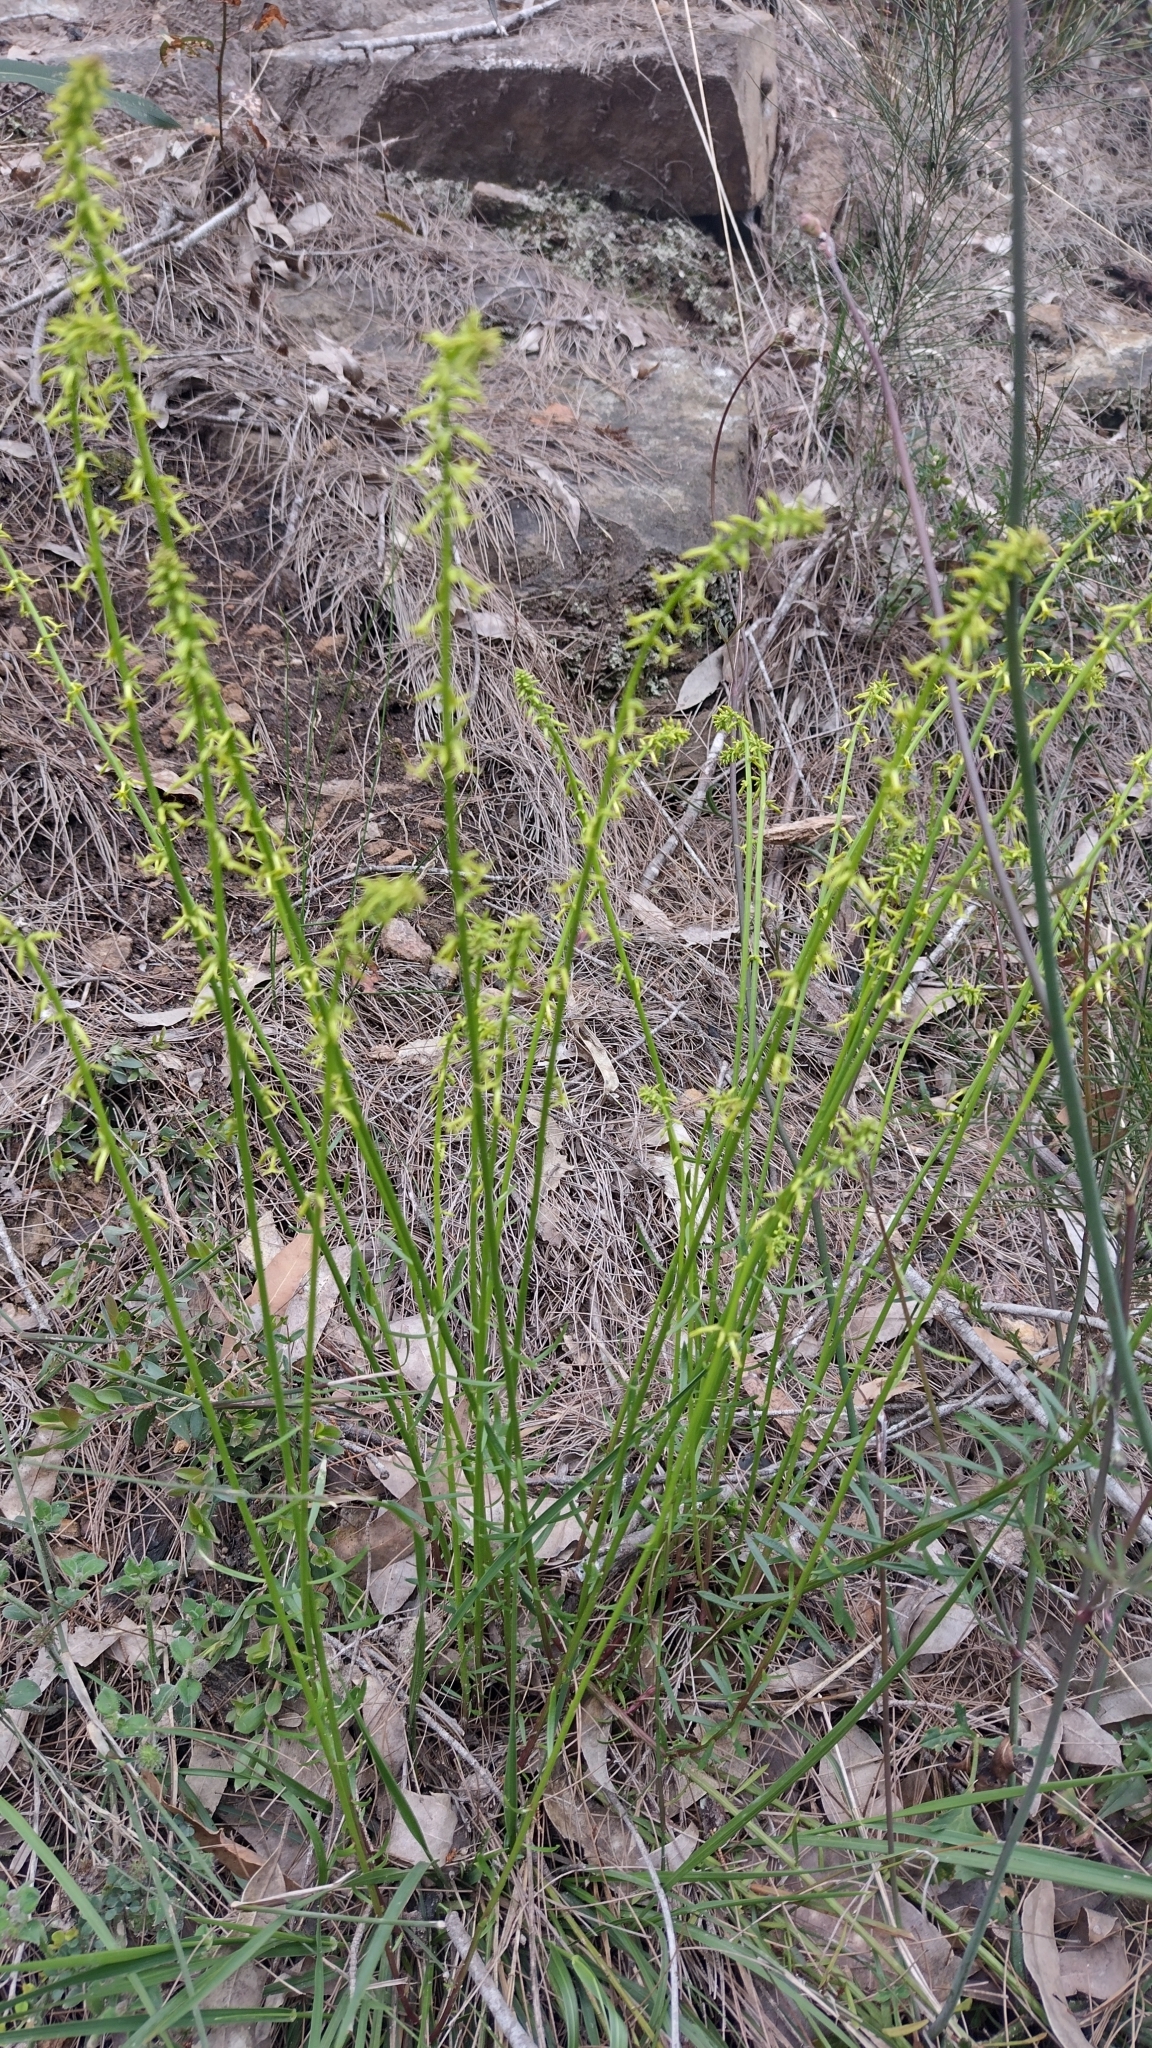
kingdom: Plantae
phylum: Tracheophyta
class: Magnoliopsida
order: Celastrales
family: Celastraceae
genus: Stackhousia
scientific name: Stackhousia viminea
